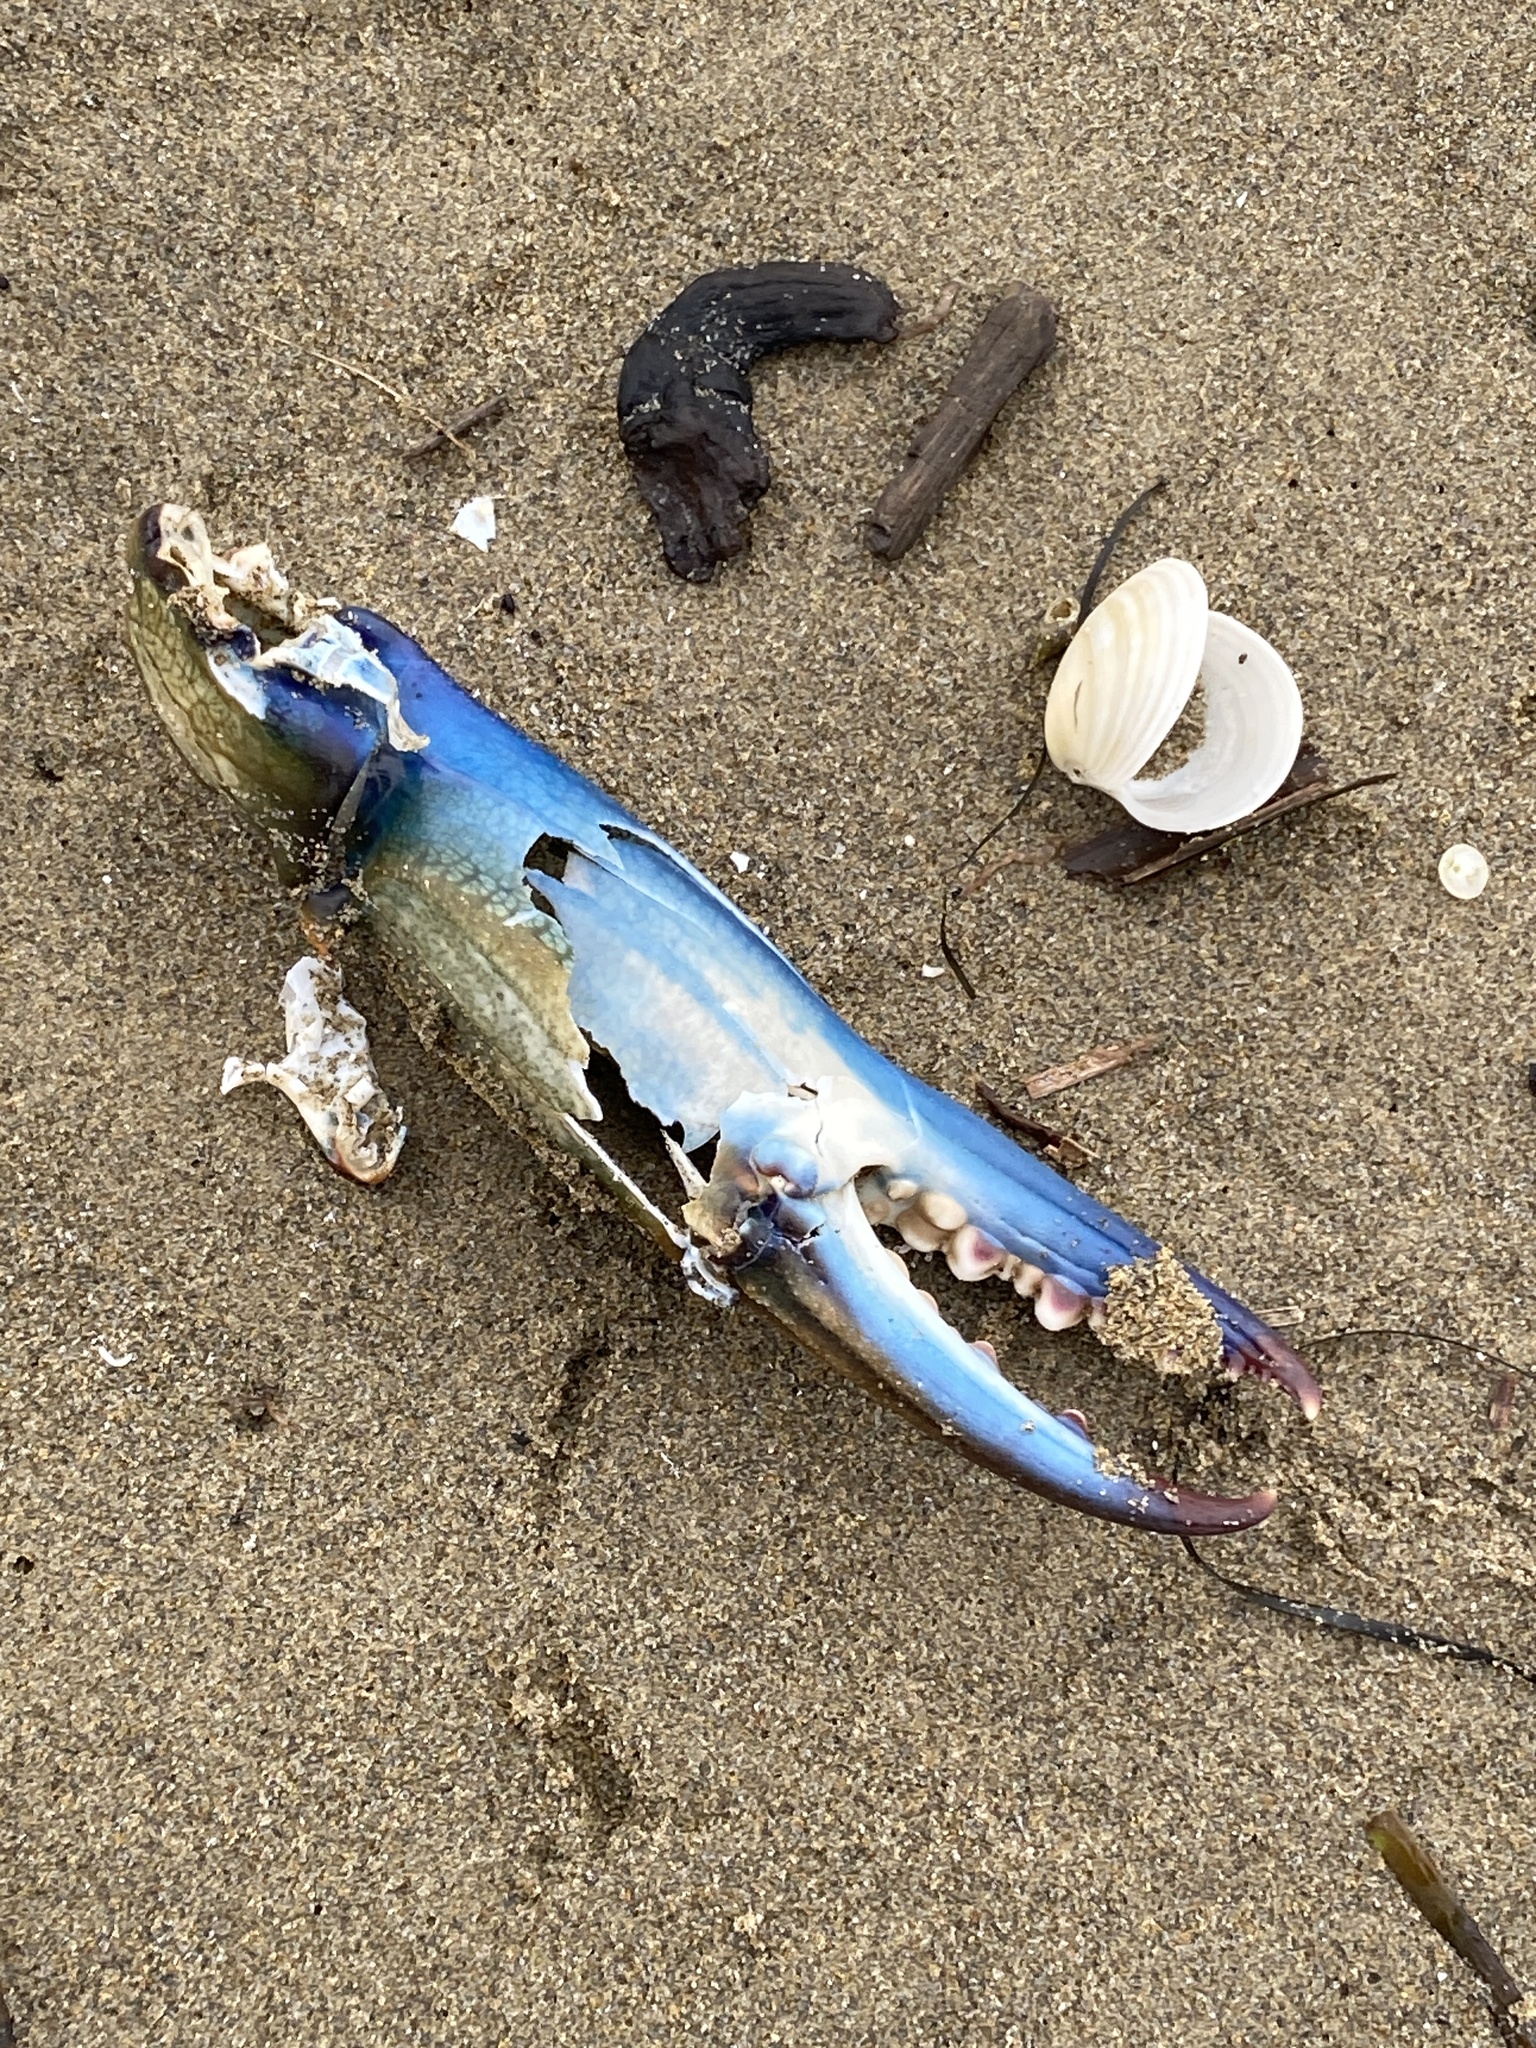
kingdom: Animalia
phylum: Arthropoda
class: Malacostraca
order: Decapoda
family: Portunidae
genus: Callinectes
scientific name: Callinectes sapidus
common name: Blue crab
